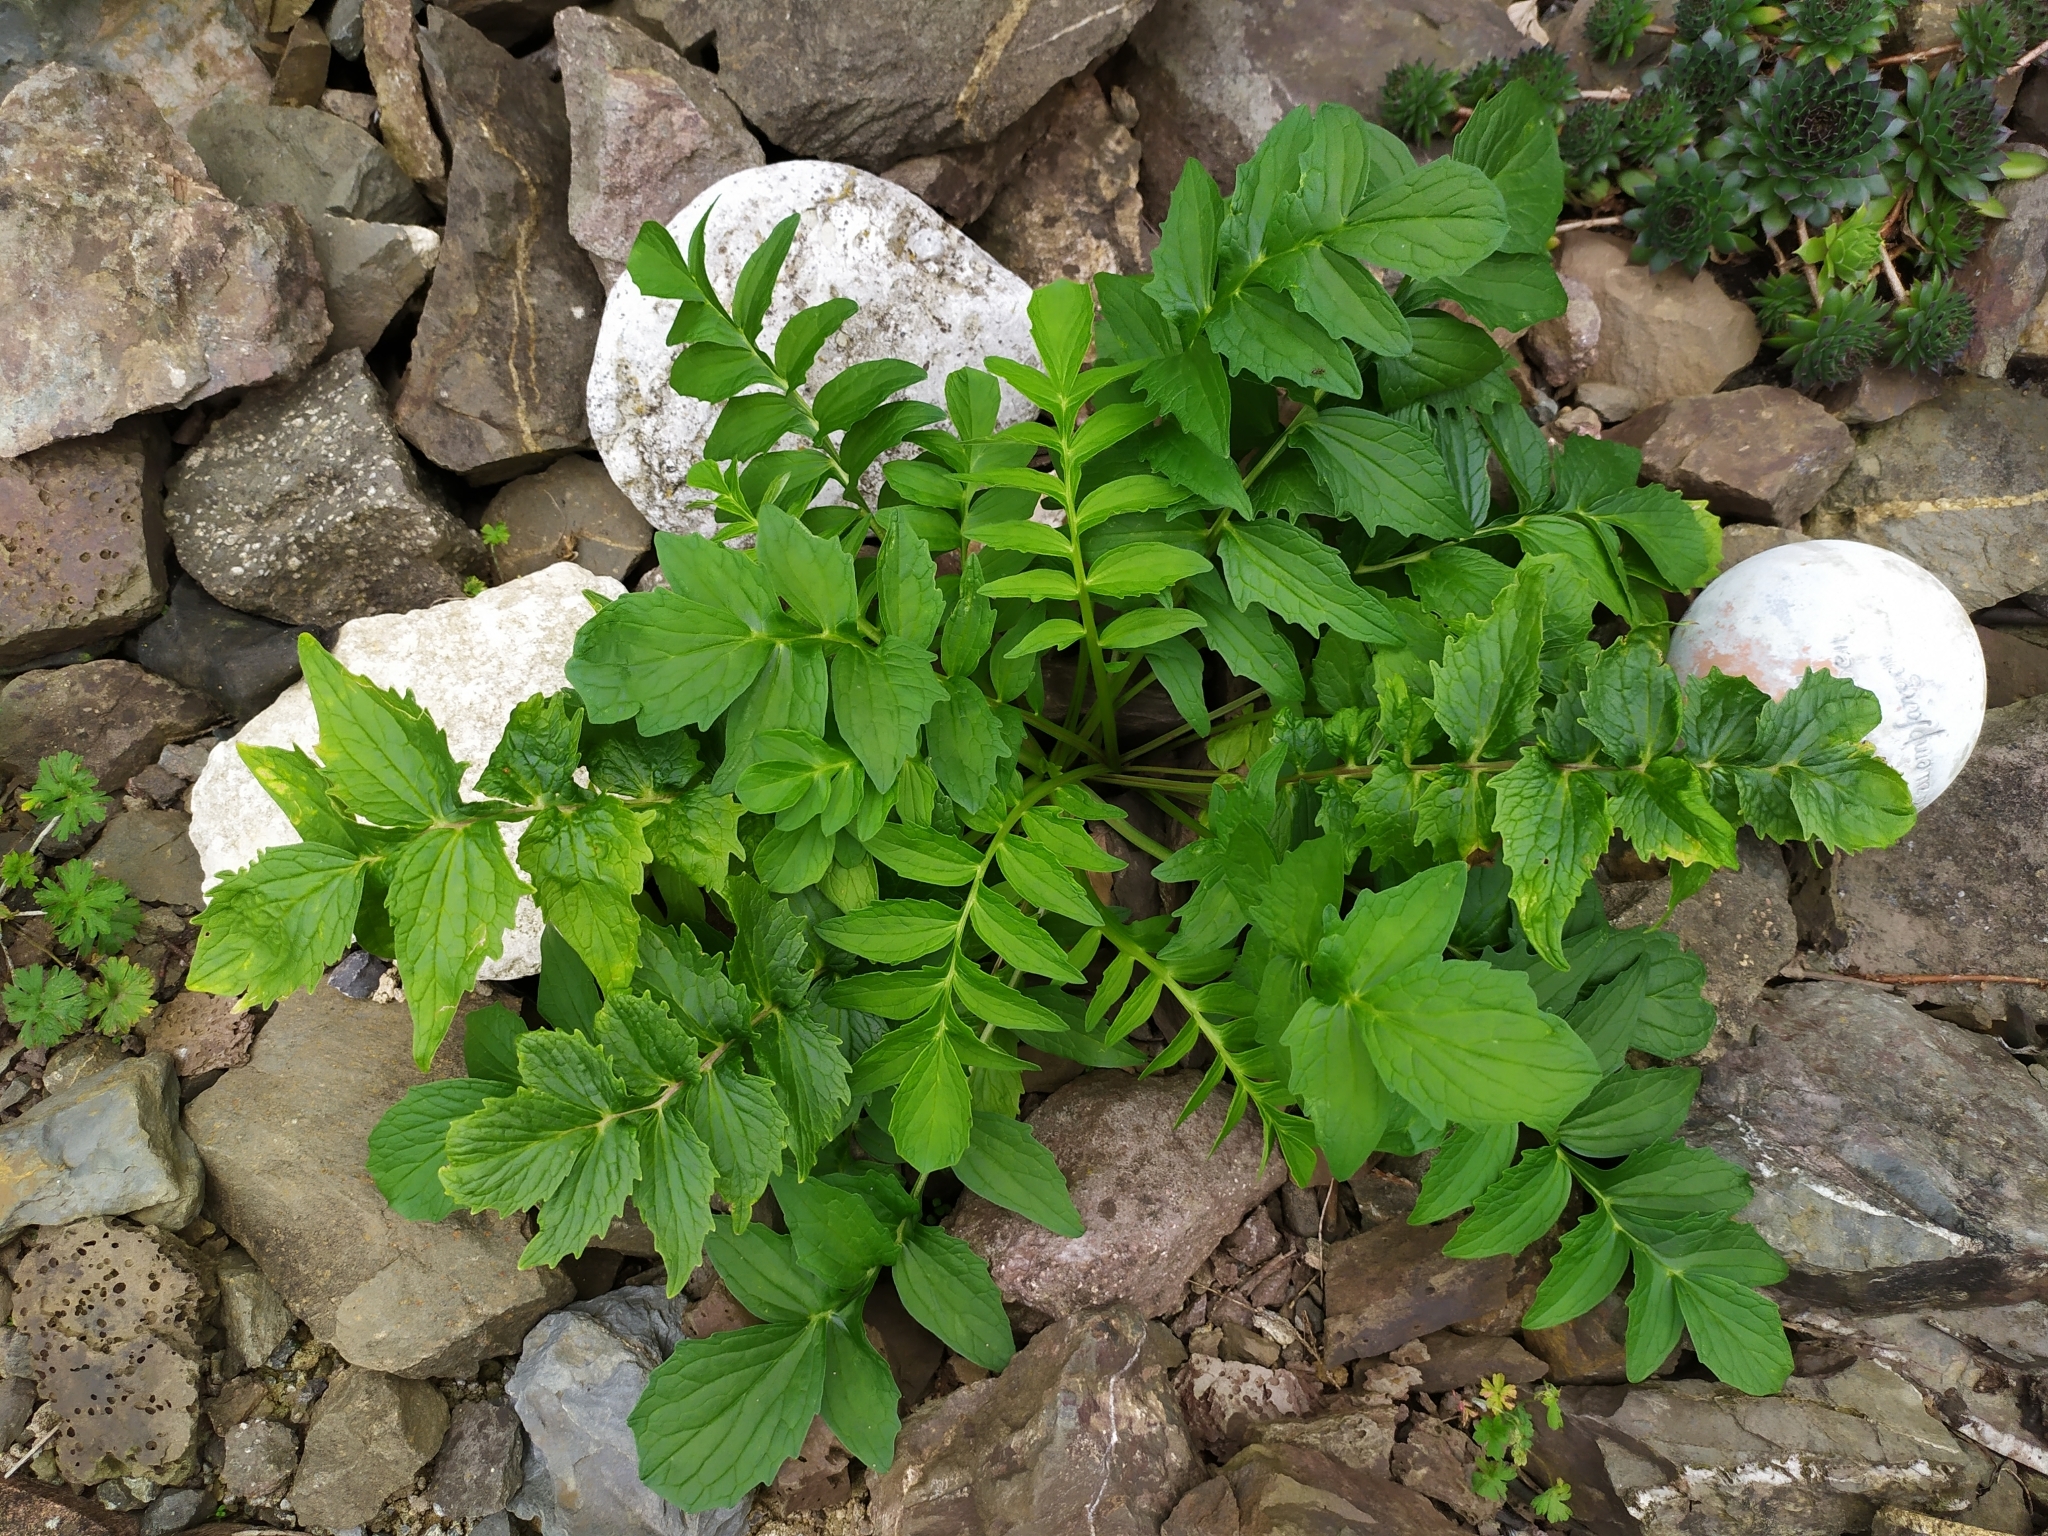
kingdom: Plantae
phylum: Tracheophyta
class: Magnoliopsida
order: Dipsacales
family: Caprifoliaceae
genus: Valeriana
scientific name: Valeriana officinalis
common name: Common valerian
